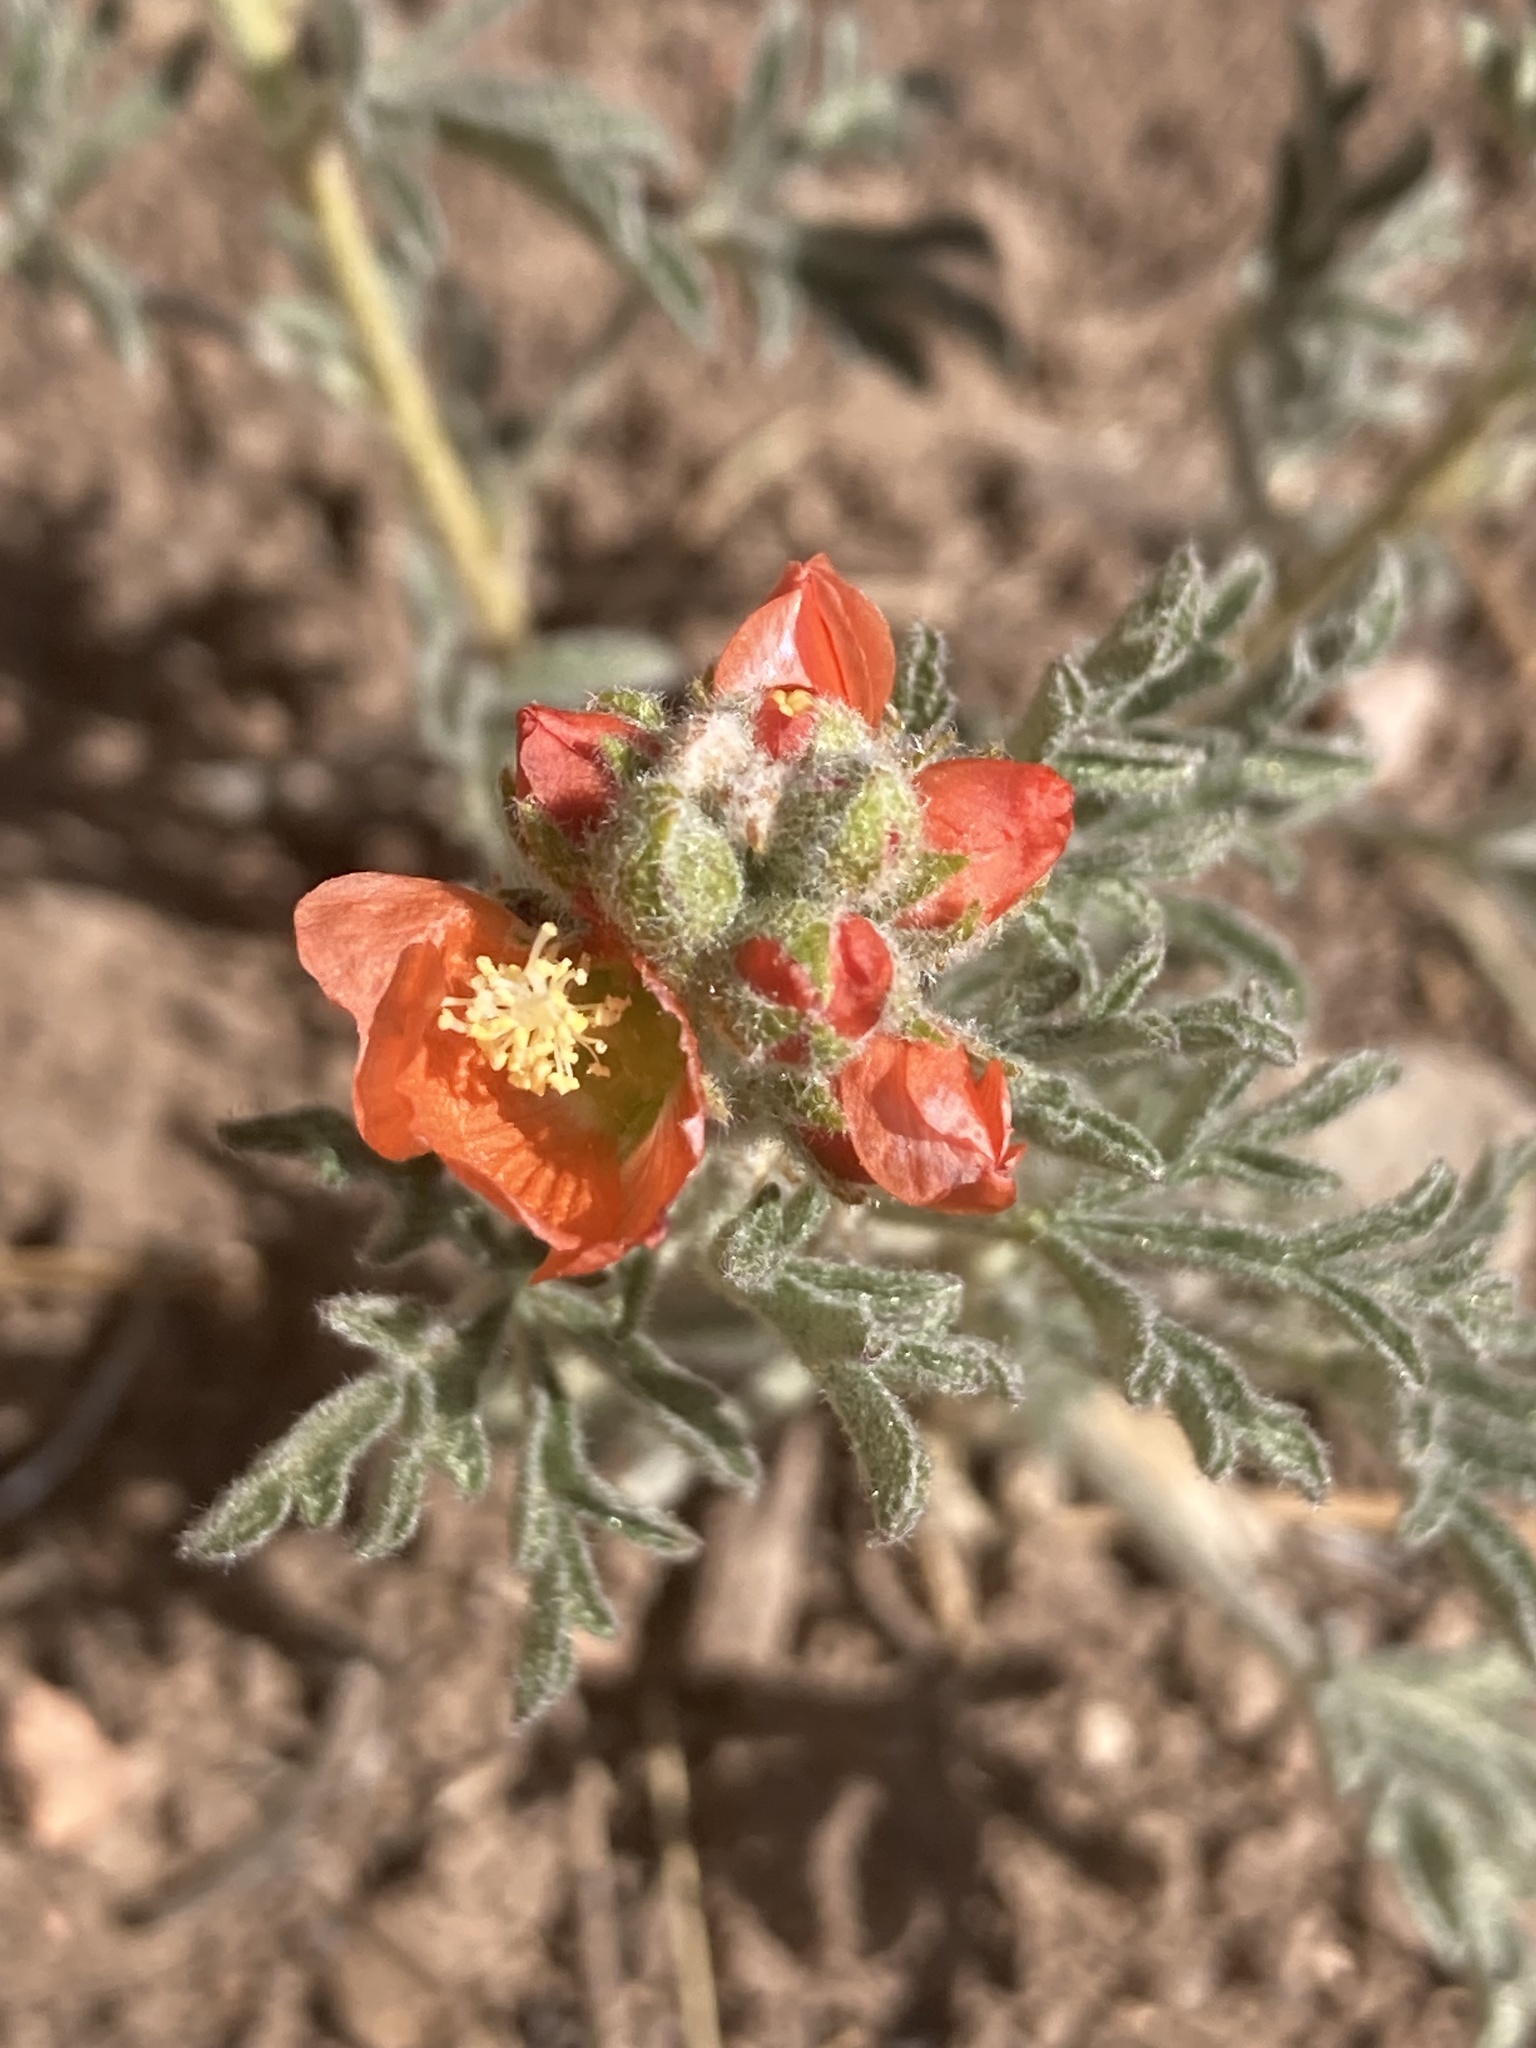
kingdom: Plantae
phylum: Tracheophyta
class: Magnoliopsida
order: Malvales
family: Malvaceae
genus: Sphaeralcea
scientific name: Sphaeralcea coccinea
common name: Moss-rose
